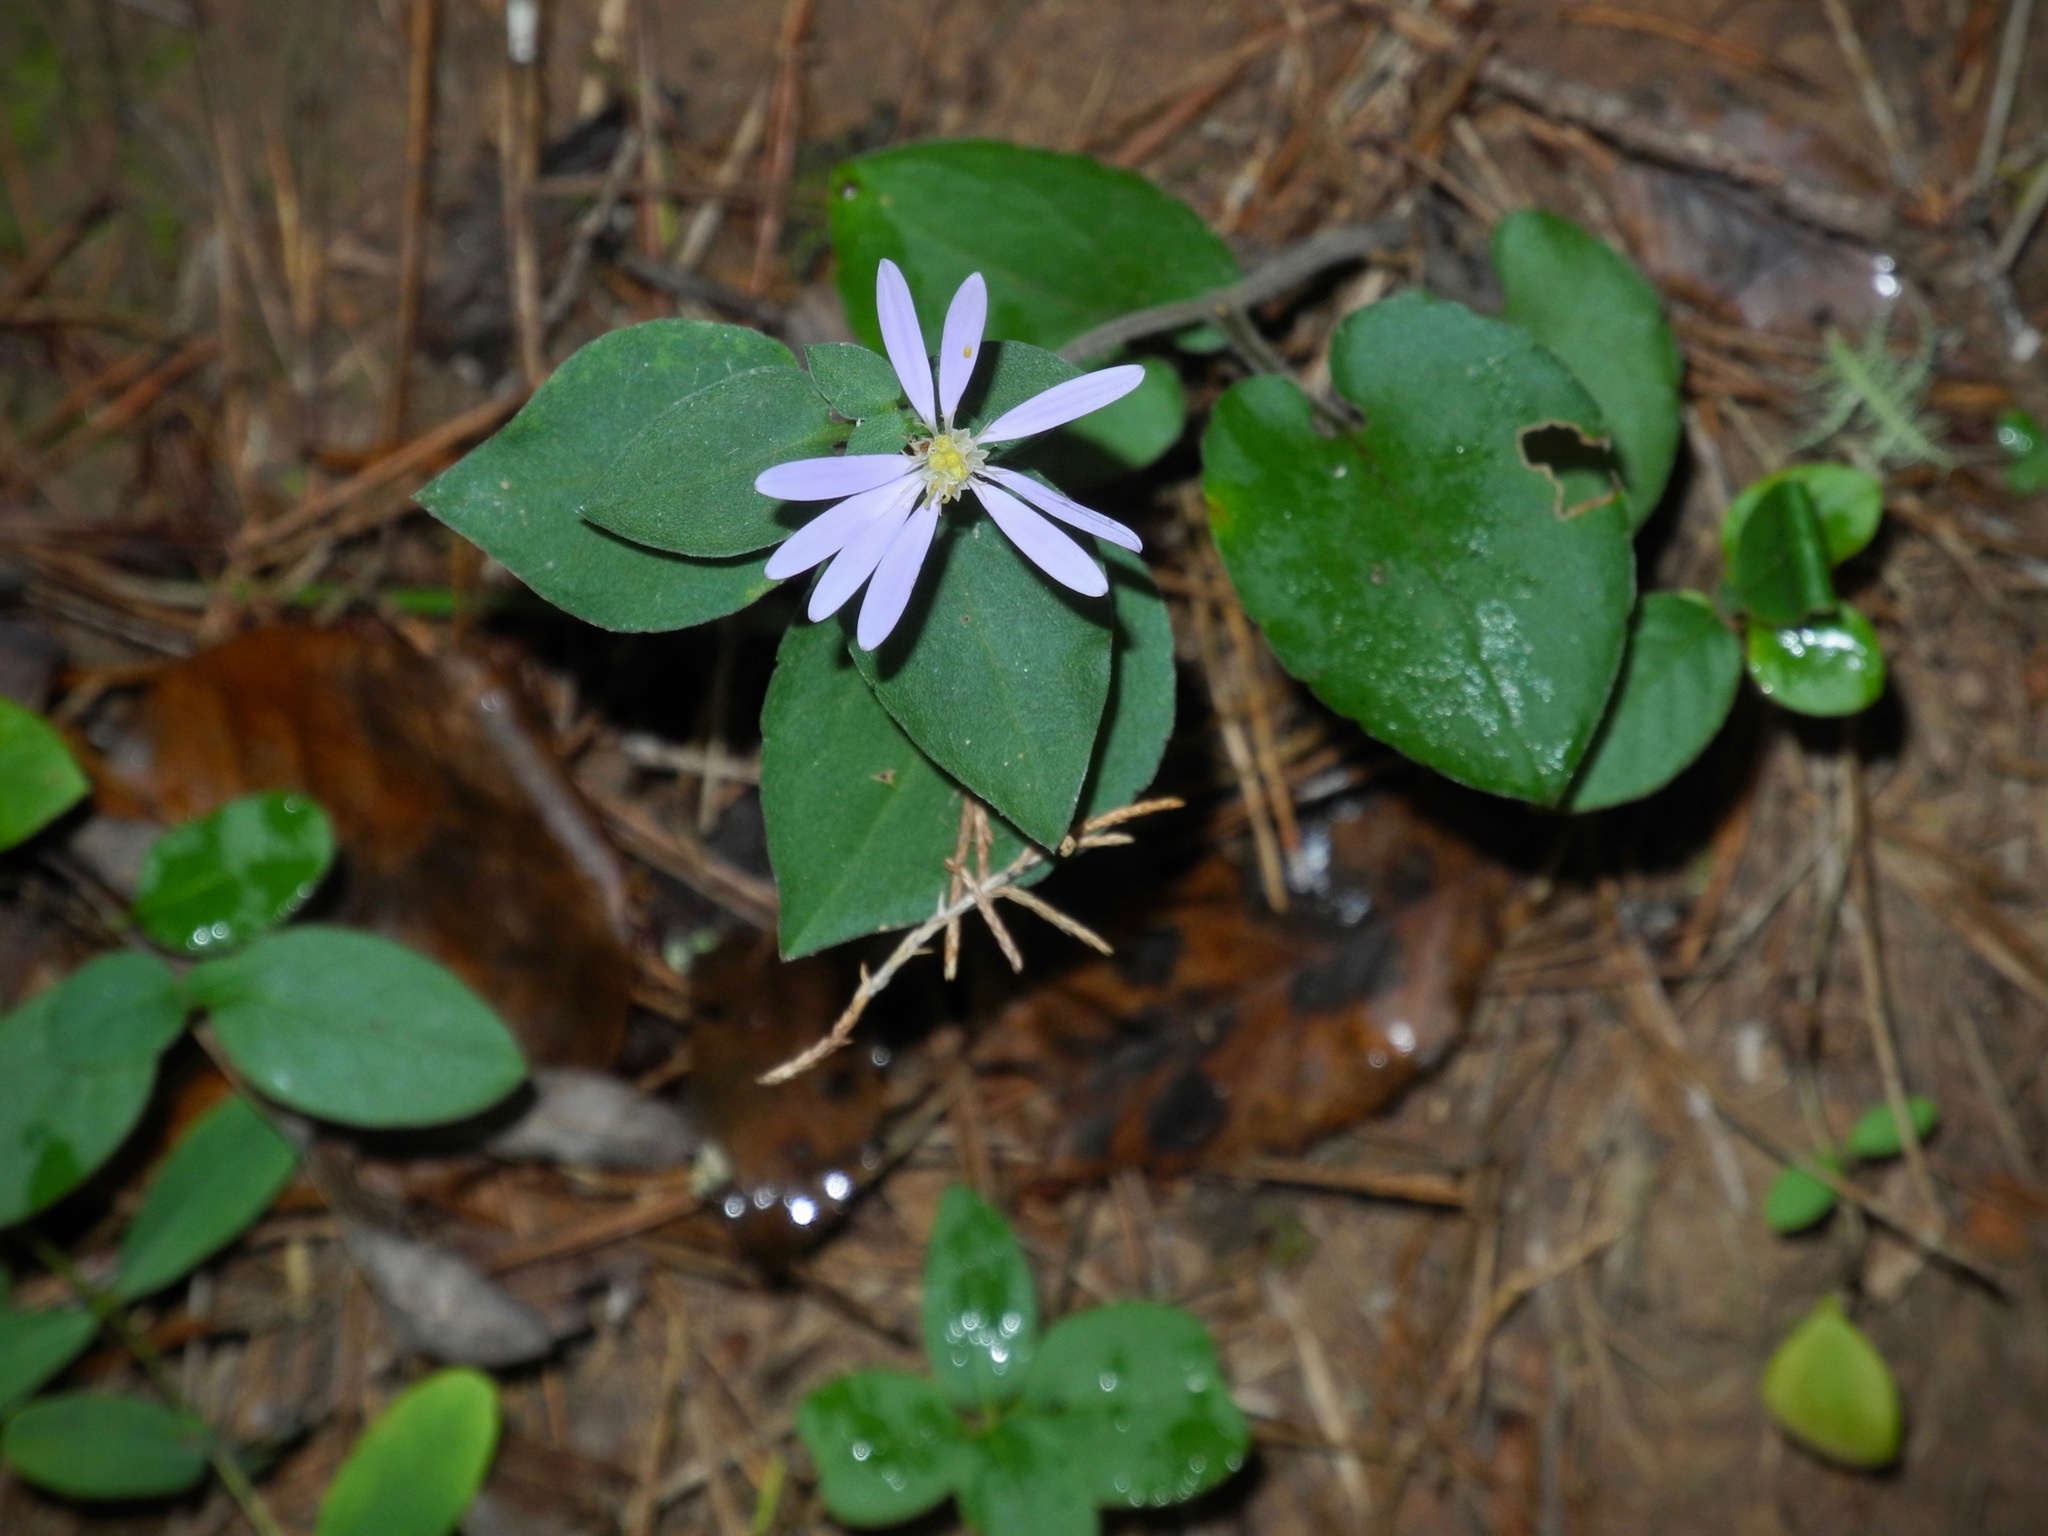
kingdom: Plantae
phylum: Tracheophyta
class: Magnoliopsida
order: Asterales
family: Asteraceae
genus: Symphyotrichum
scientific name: Symphyotrichum cordifolium
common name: Beeweed
